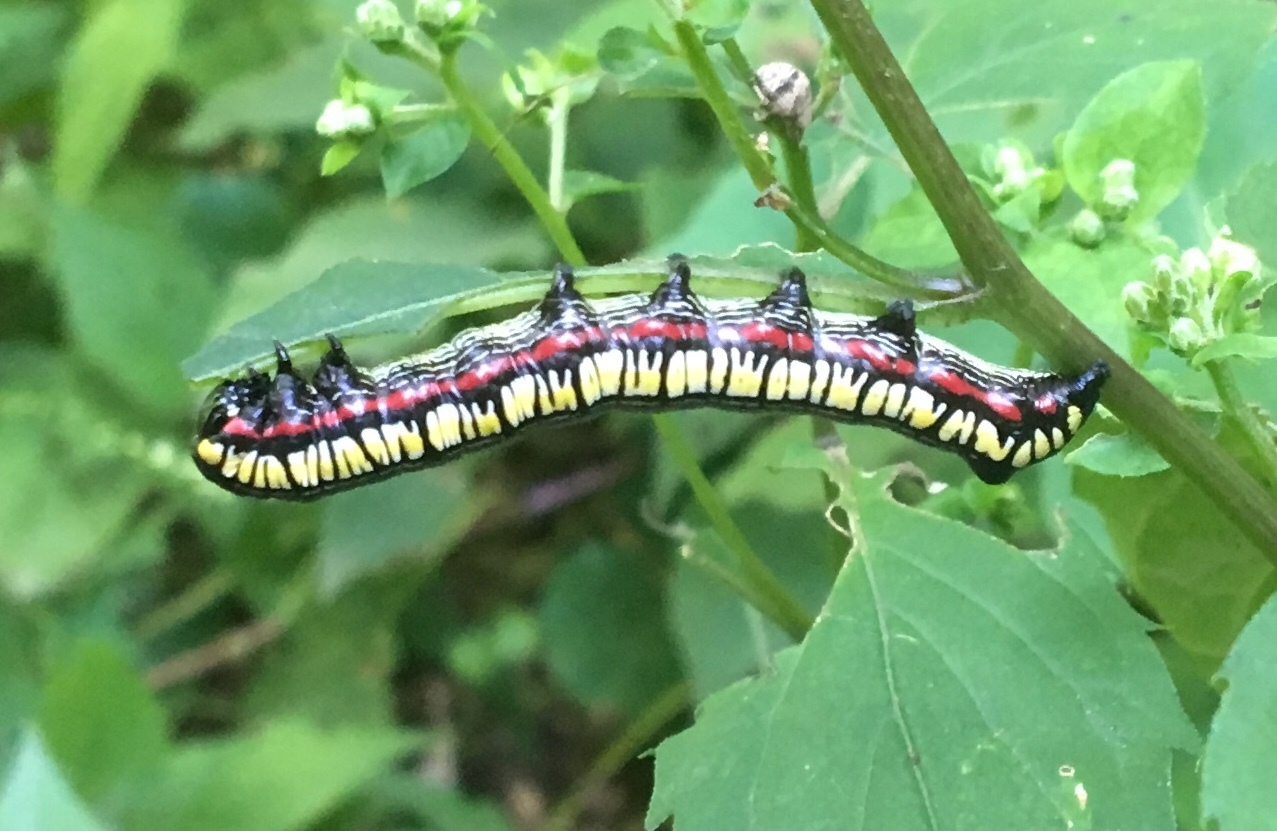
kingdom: Animalia
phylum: Arthropoda
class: Insecta
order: Lepidoptera
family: Noctuidae
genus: Cucullia
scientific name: Cucullia convexipennis
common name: Brown-hooded owlet
